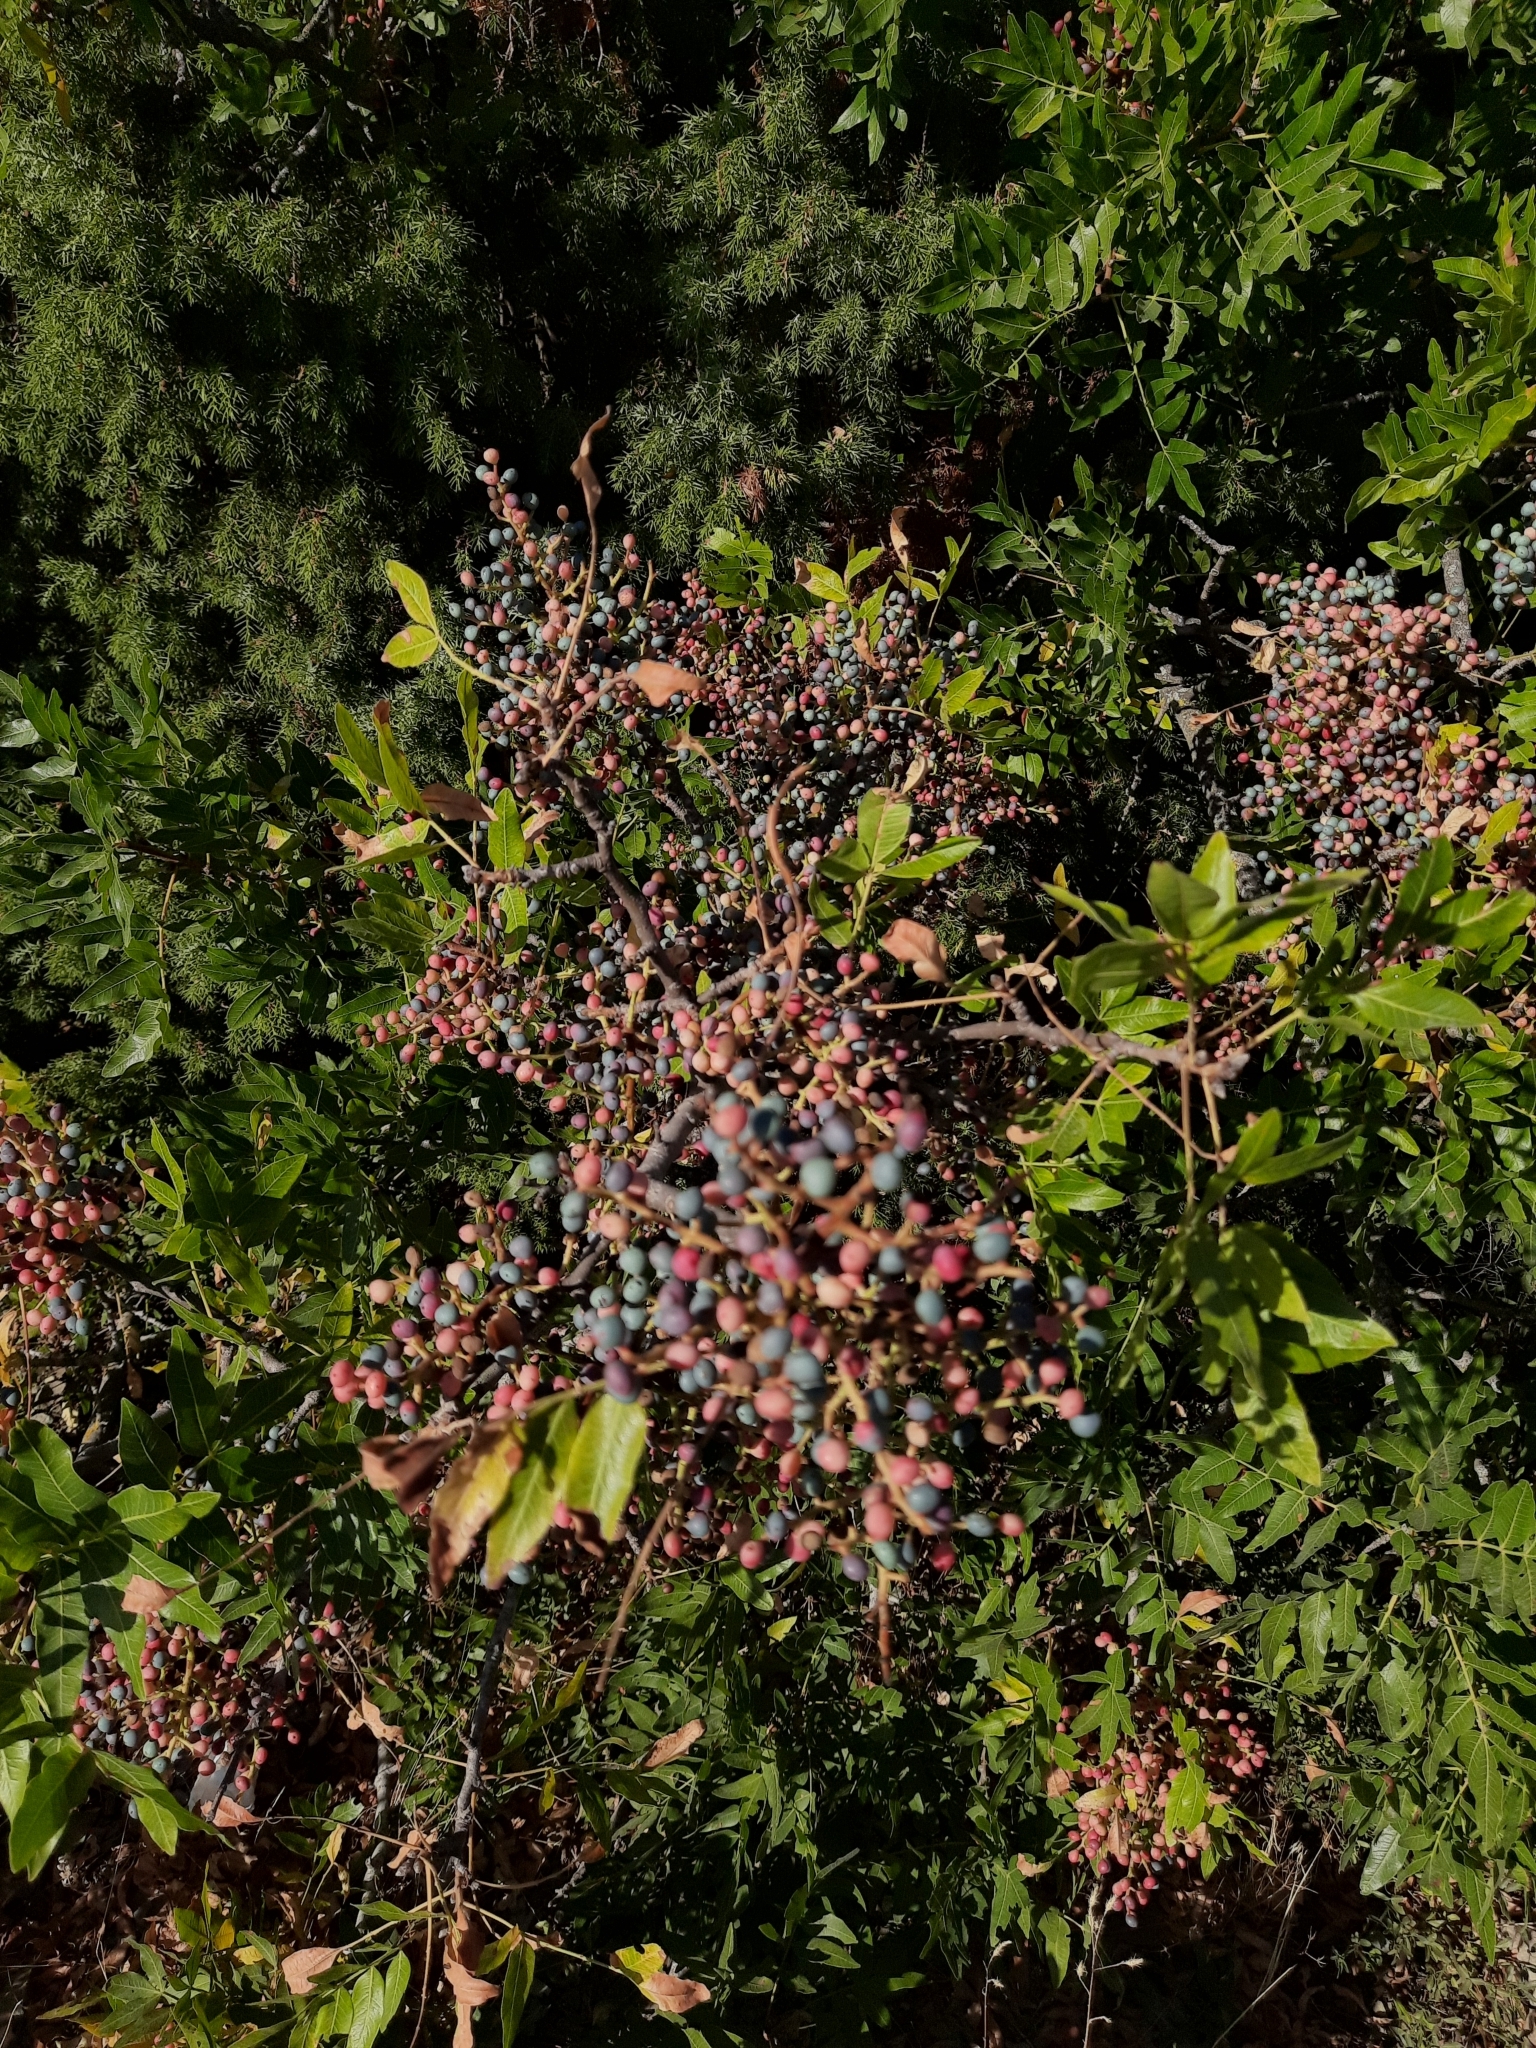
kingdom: Plantae
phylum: Tracheophyta
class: Magnoliopsida
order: Sapindales
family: Anacardiaceae
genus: Pistacia
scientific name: Pistacia atlantica
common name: Mt. atlas mastic tree
